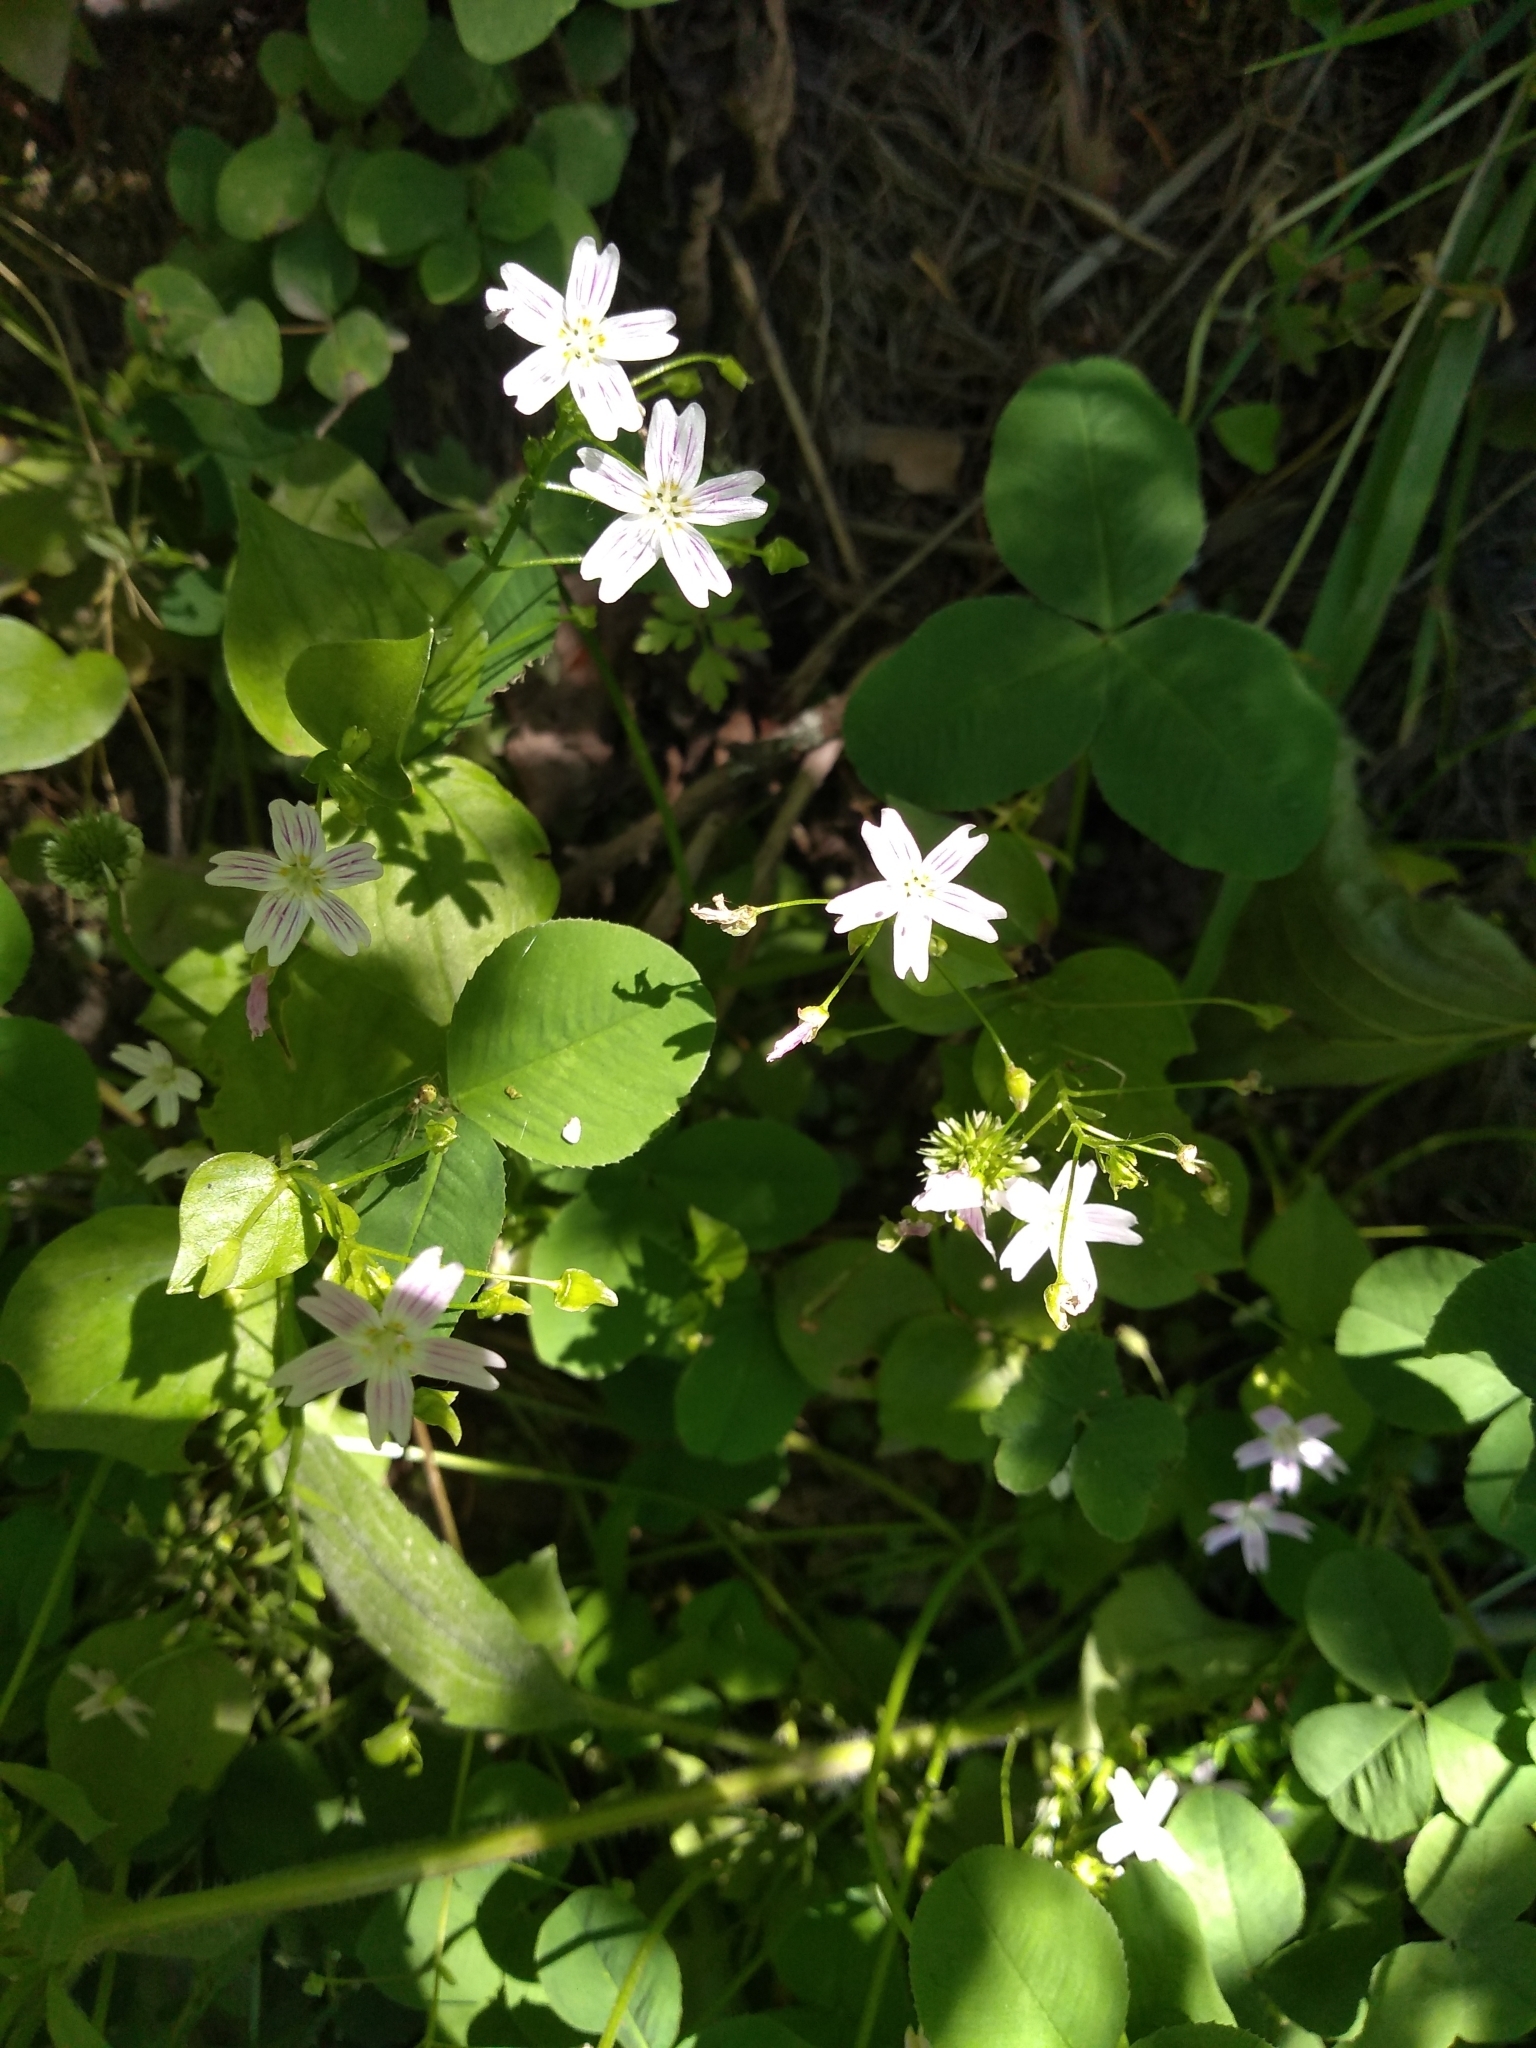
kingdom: Plantae
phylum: Tracheophyta
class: Magnoliopsida
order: Caryophyllales
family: Montiaceae
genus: Claytonia
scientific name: Claytonia sibirica
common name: Pink purslane
